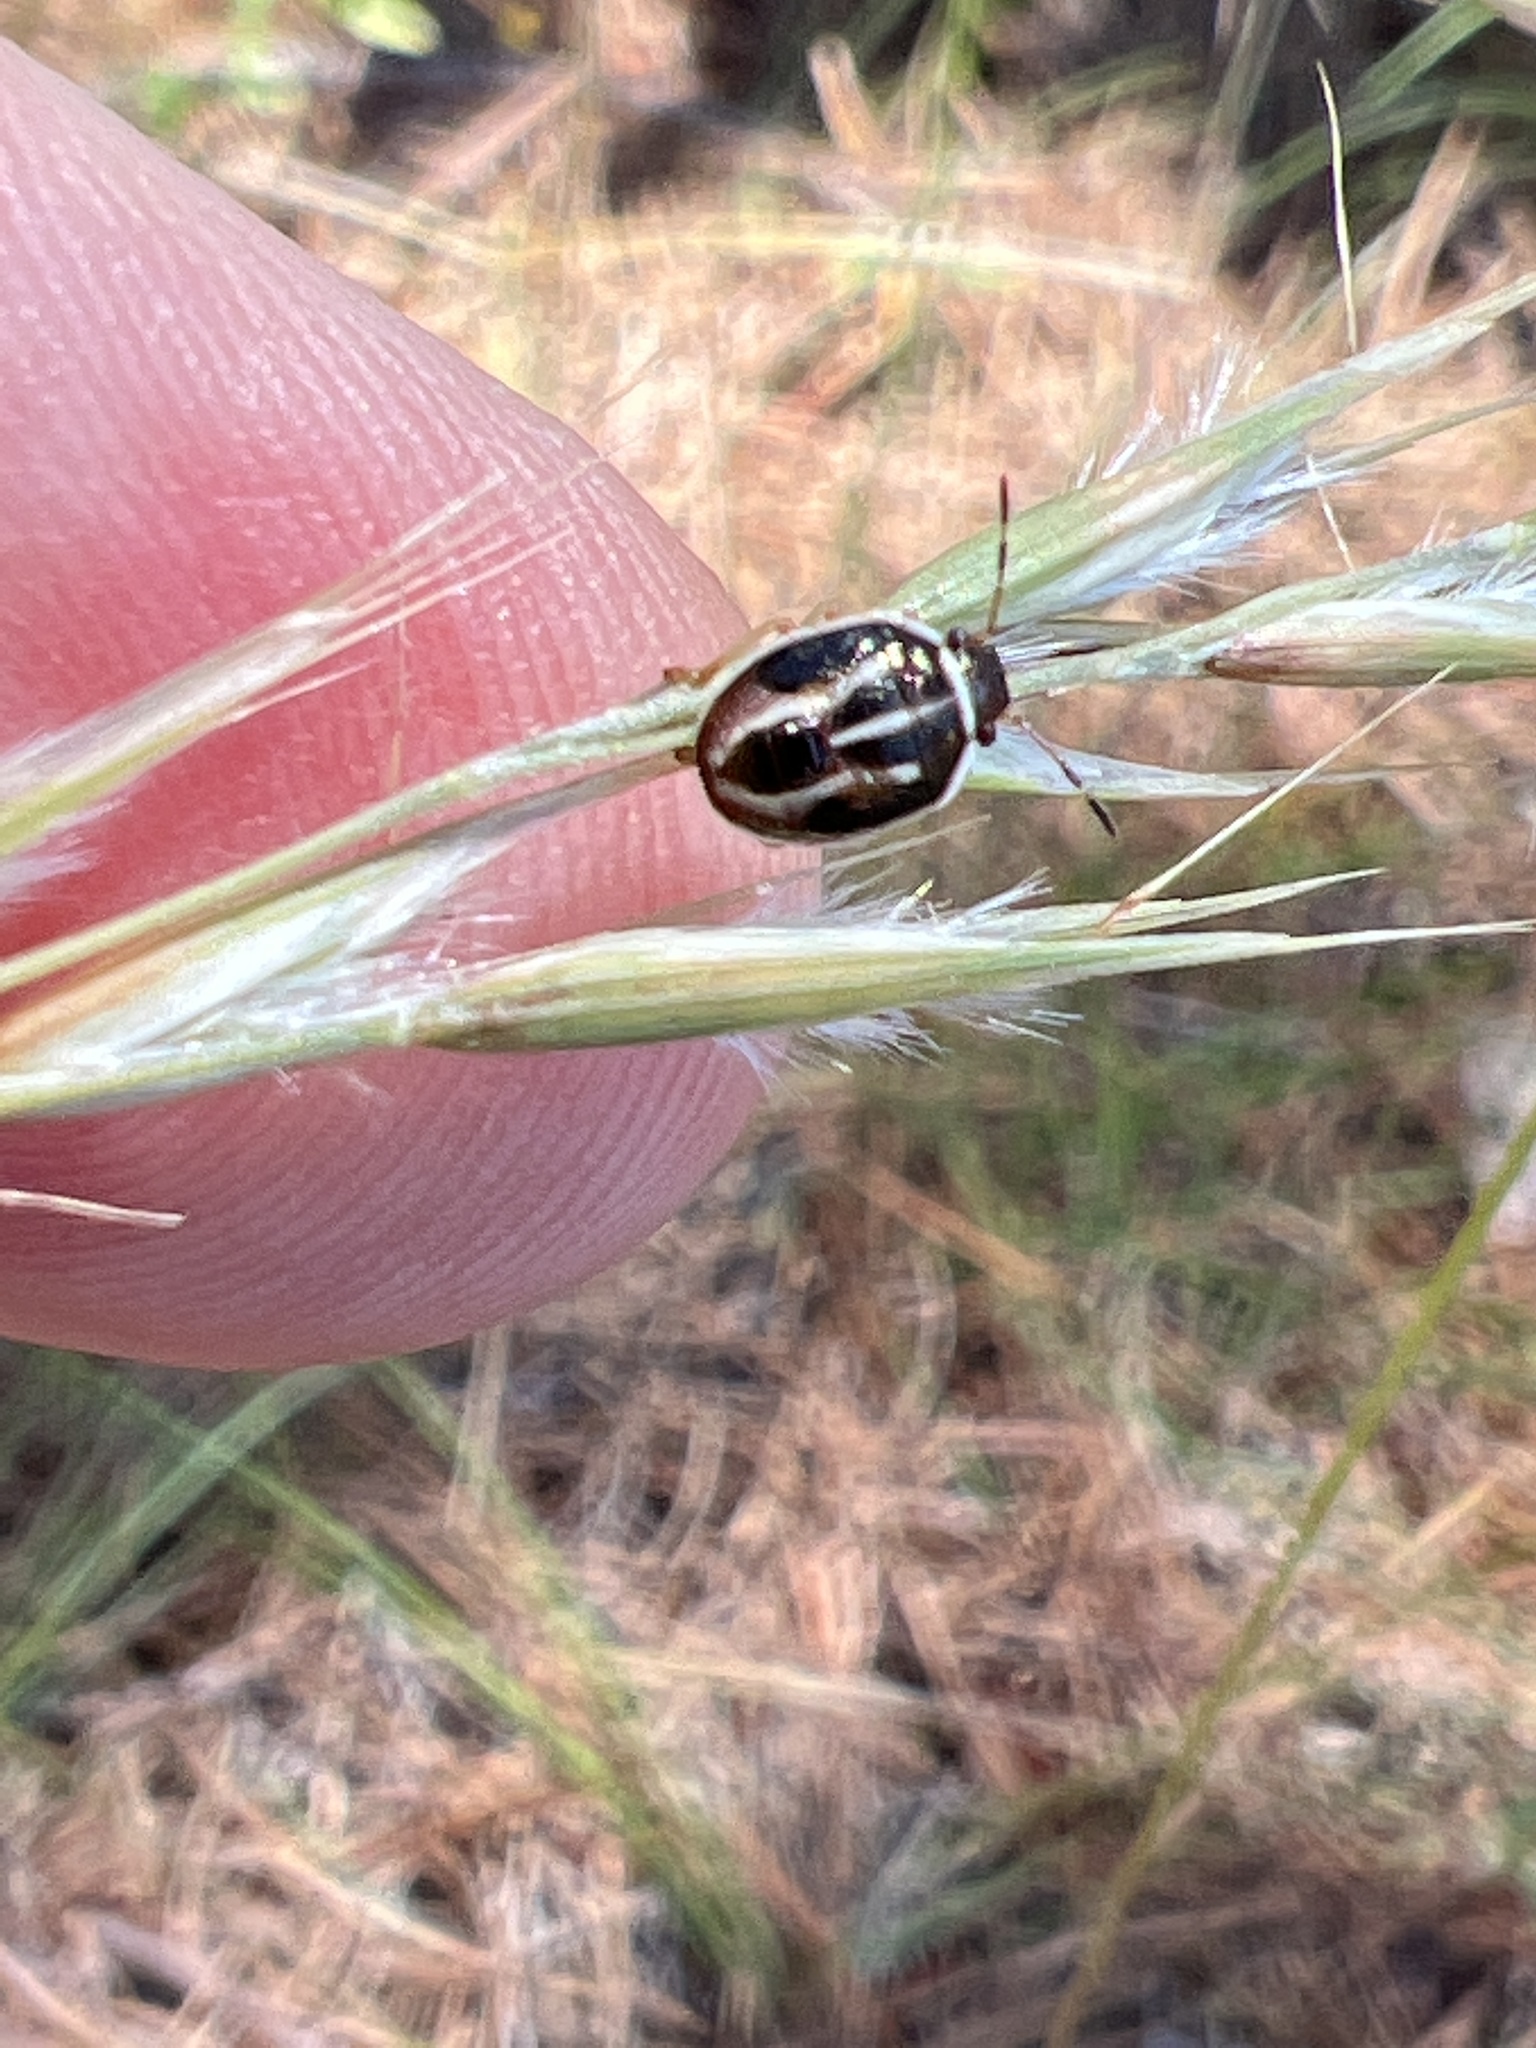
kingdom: Animalia
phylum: Arthropoda
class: Insecta
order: Hemiptera
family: Pentatomidae
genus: Mormidea
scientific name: Mormidea lugens
